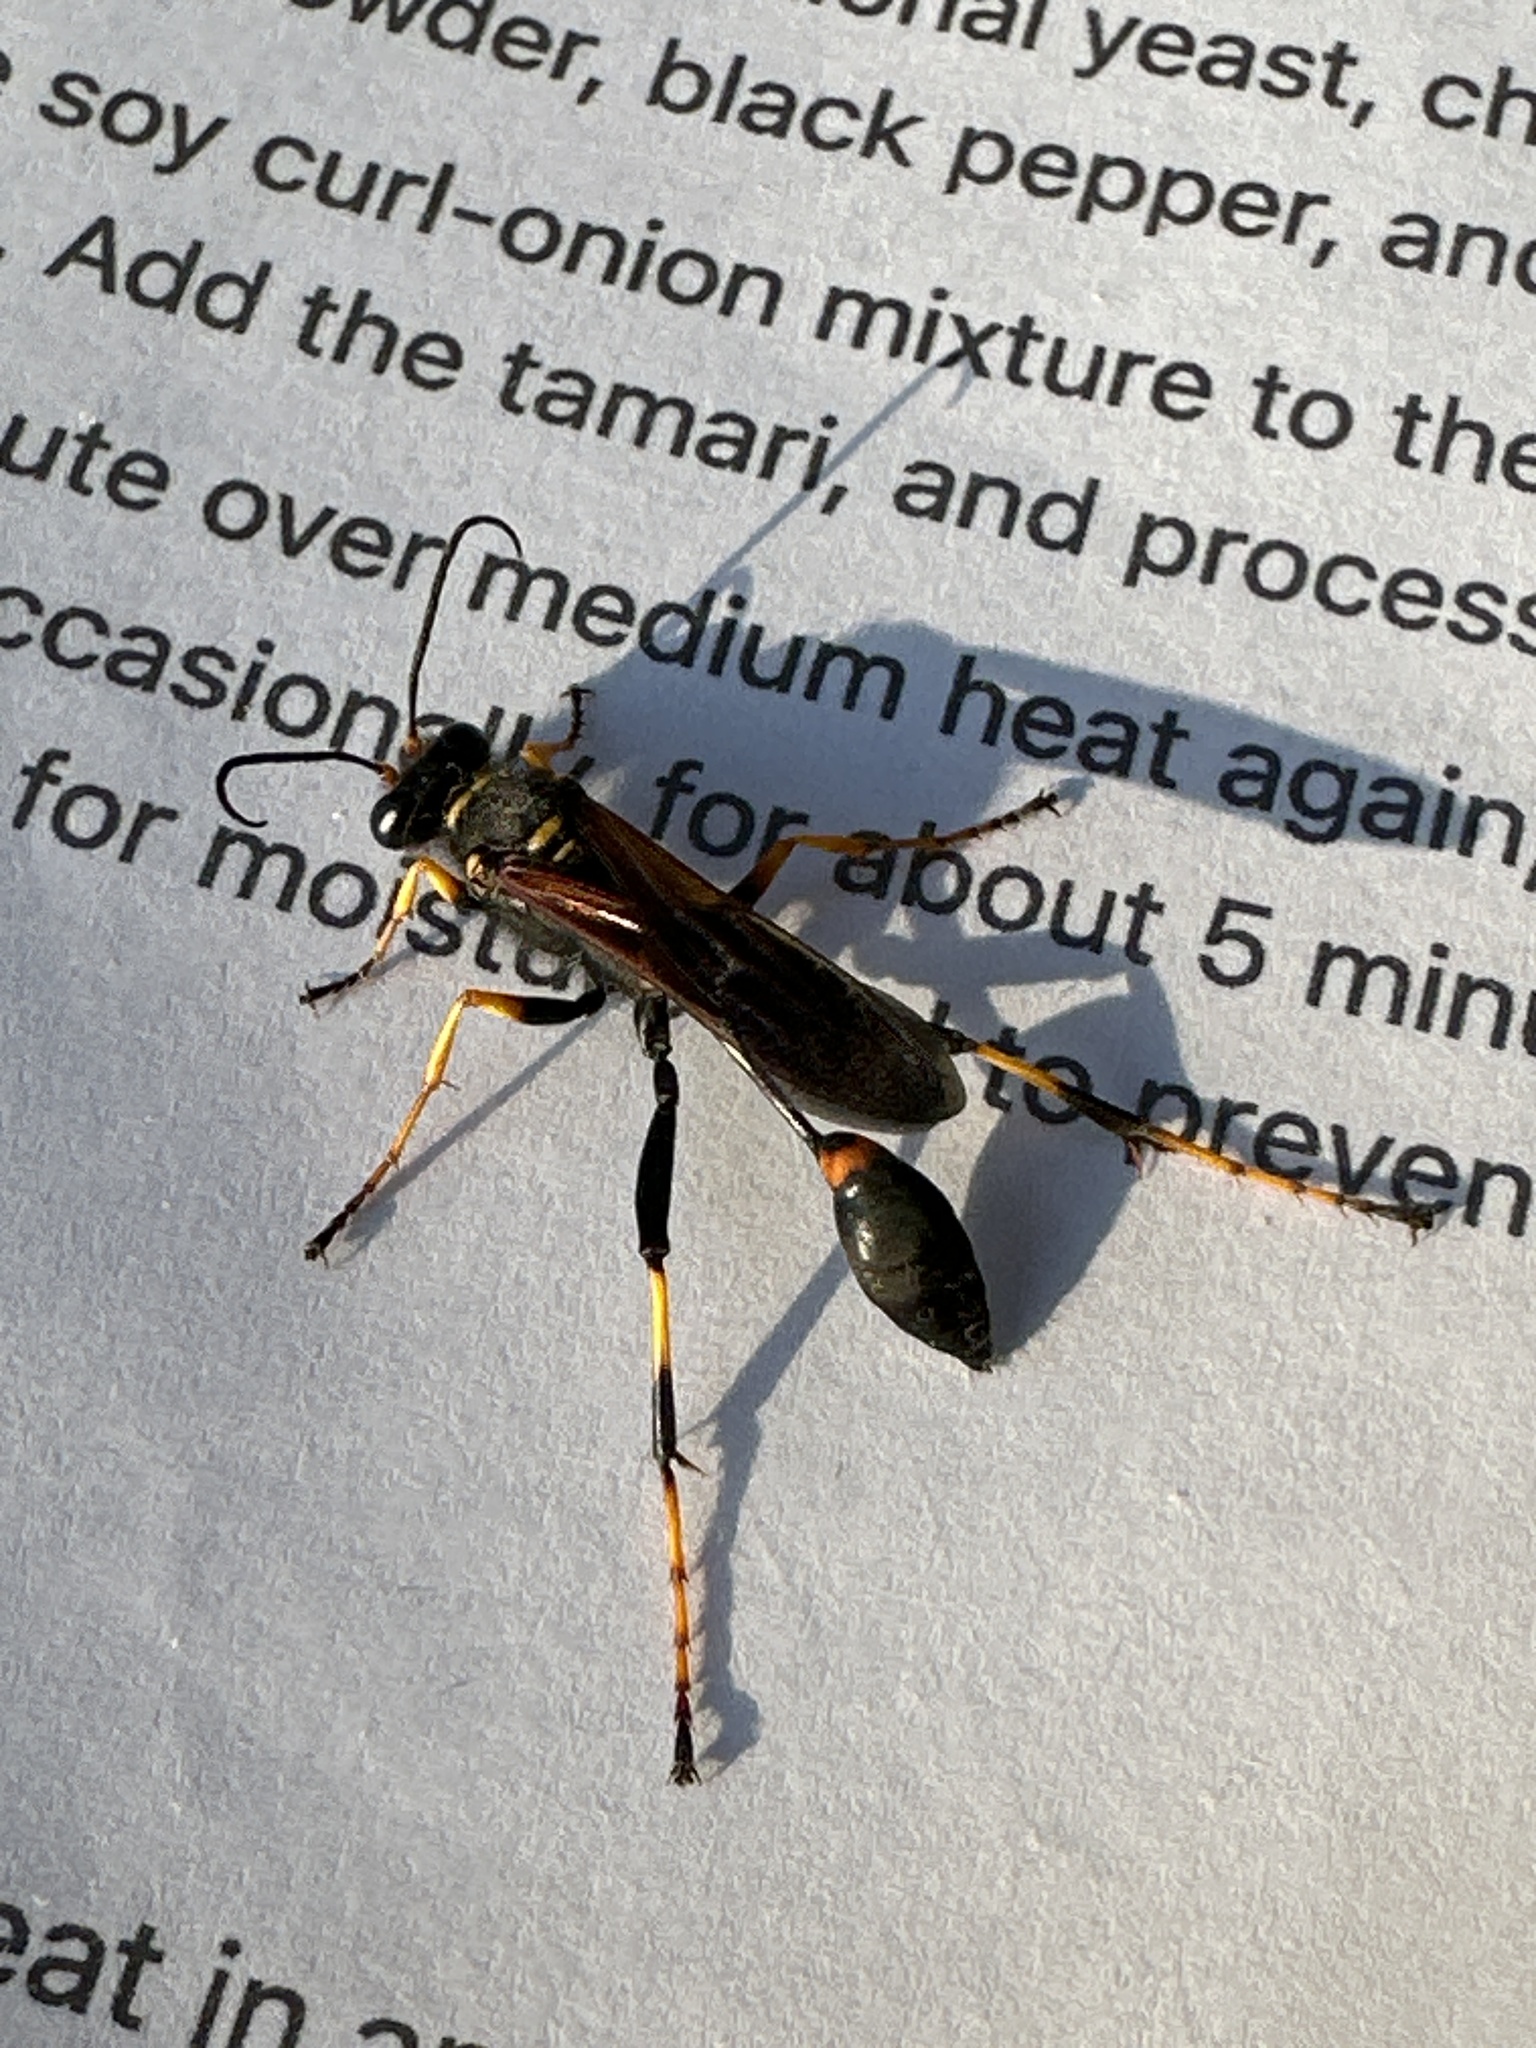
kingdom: Animalia
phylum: Arthropoda
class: Insecta
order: Hymenoptera
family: Sphecidae
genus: Sceliphron
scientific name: Sceliphron caementarium
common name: Mud dauber
